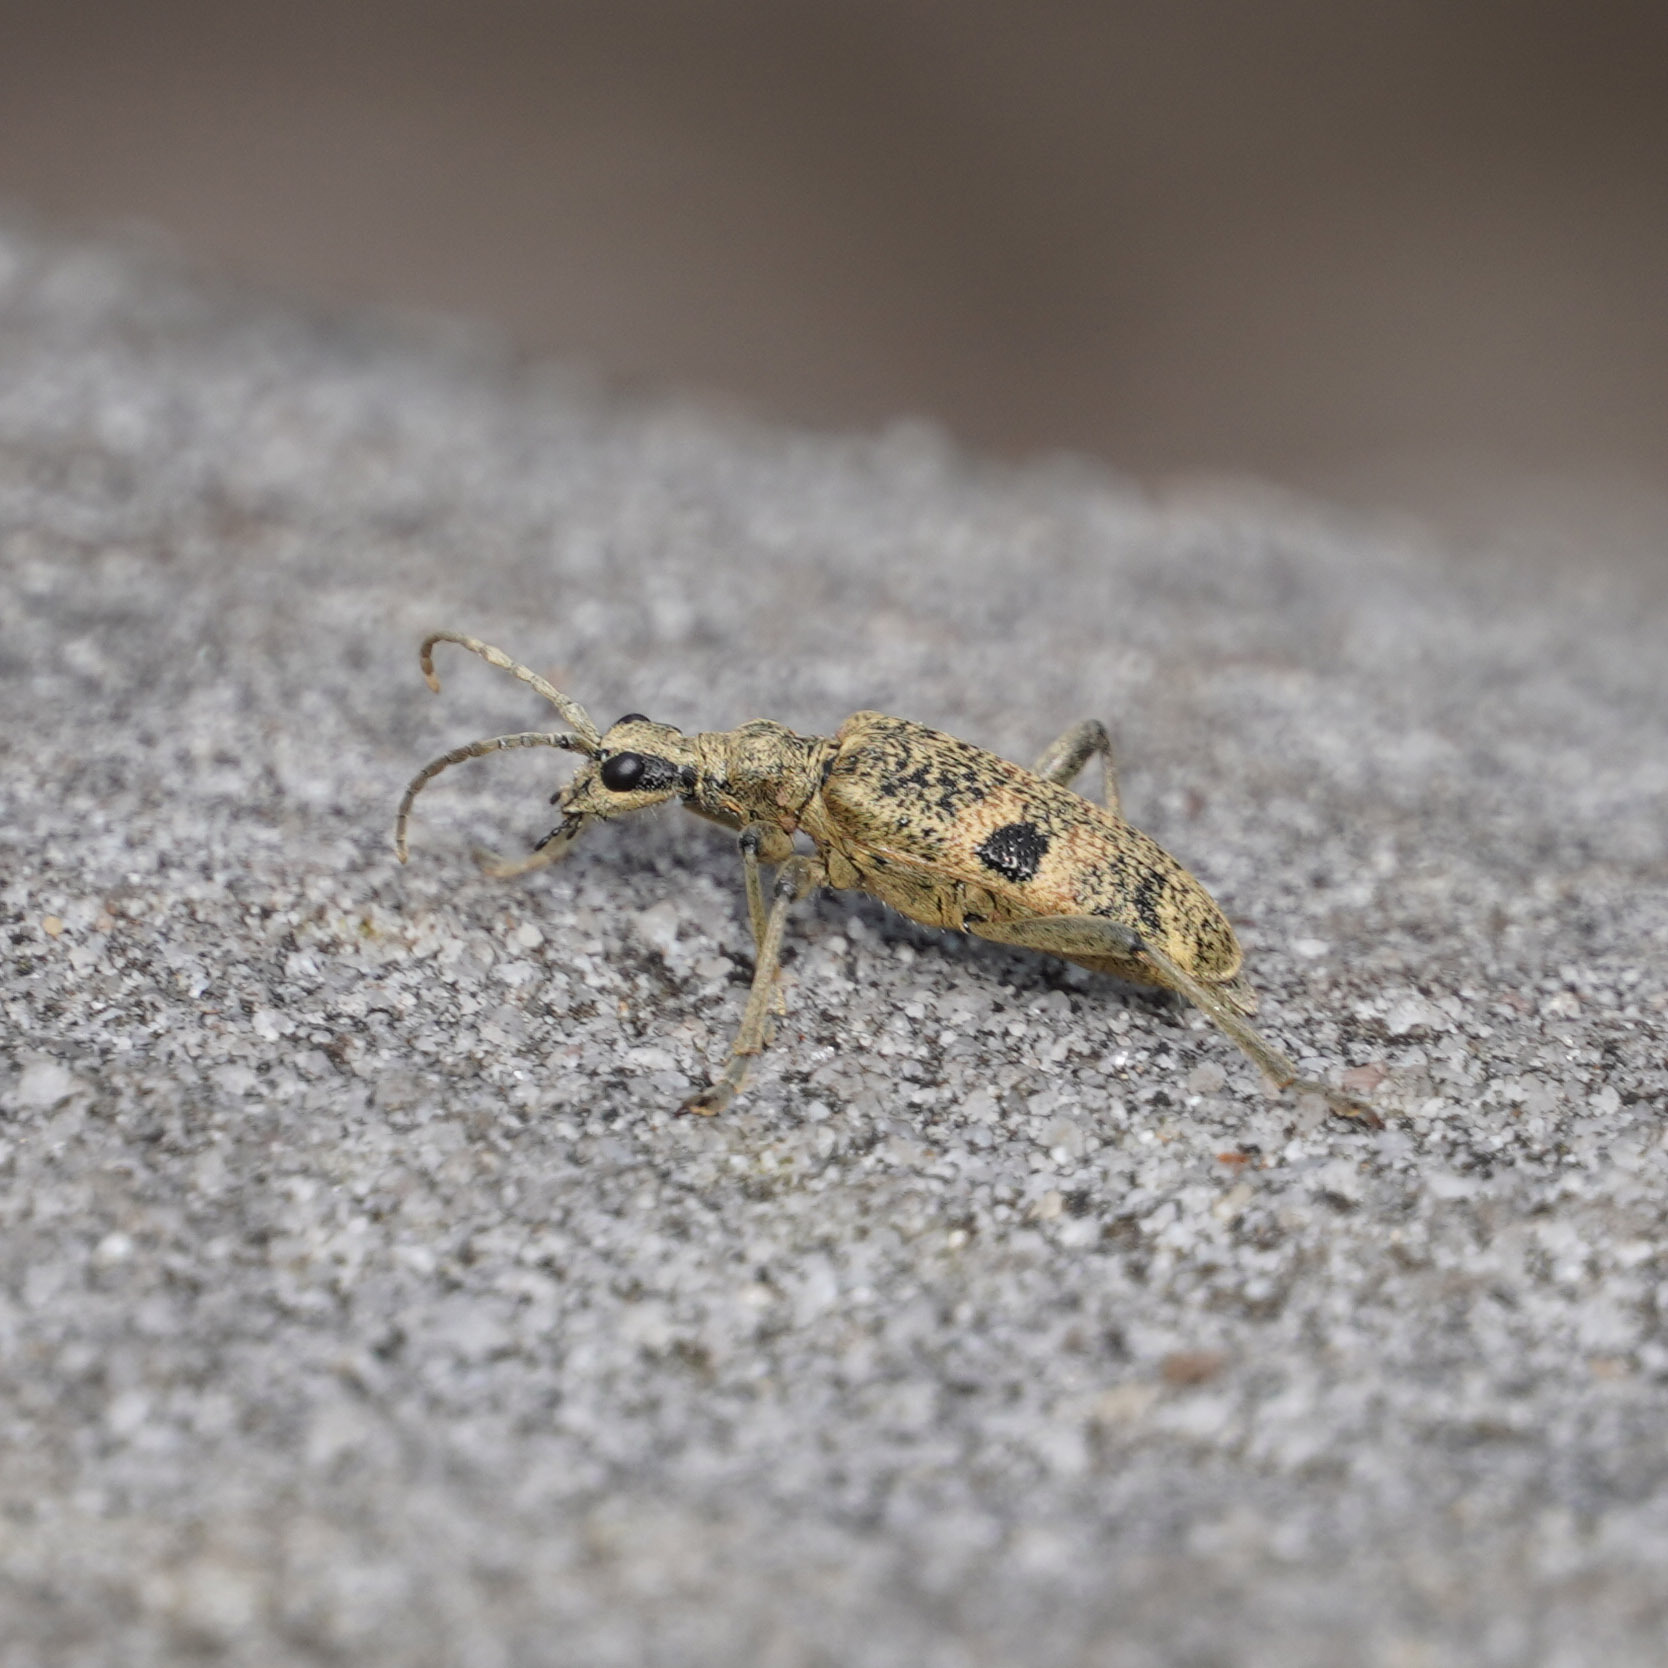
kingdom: Animalia
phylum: Arthropoda
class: Insecta
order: Coleoptera
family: Cerambycidae
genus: Rhagium
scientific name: Rhagium mordax
